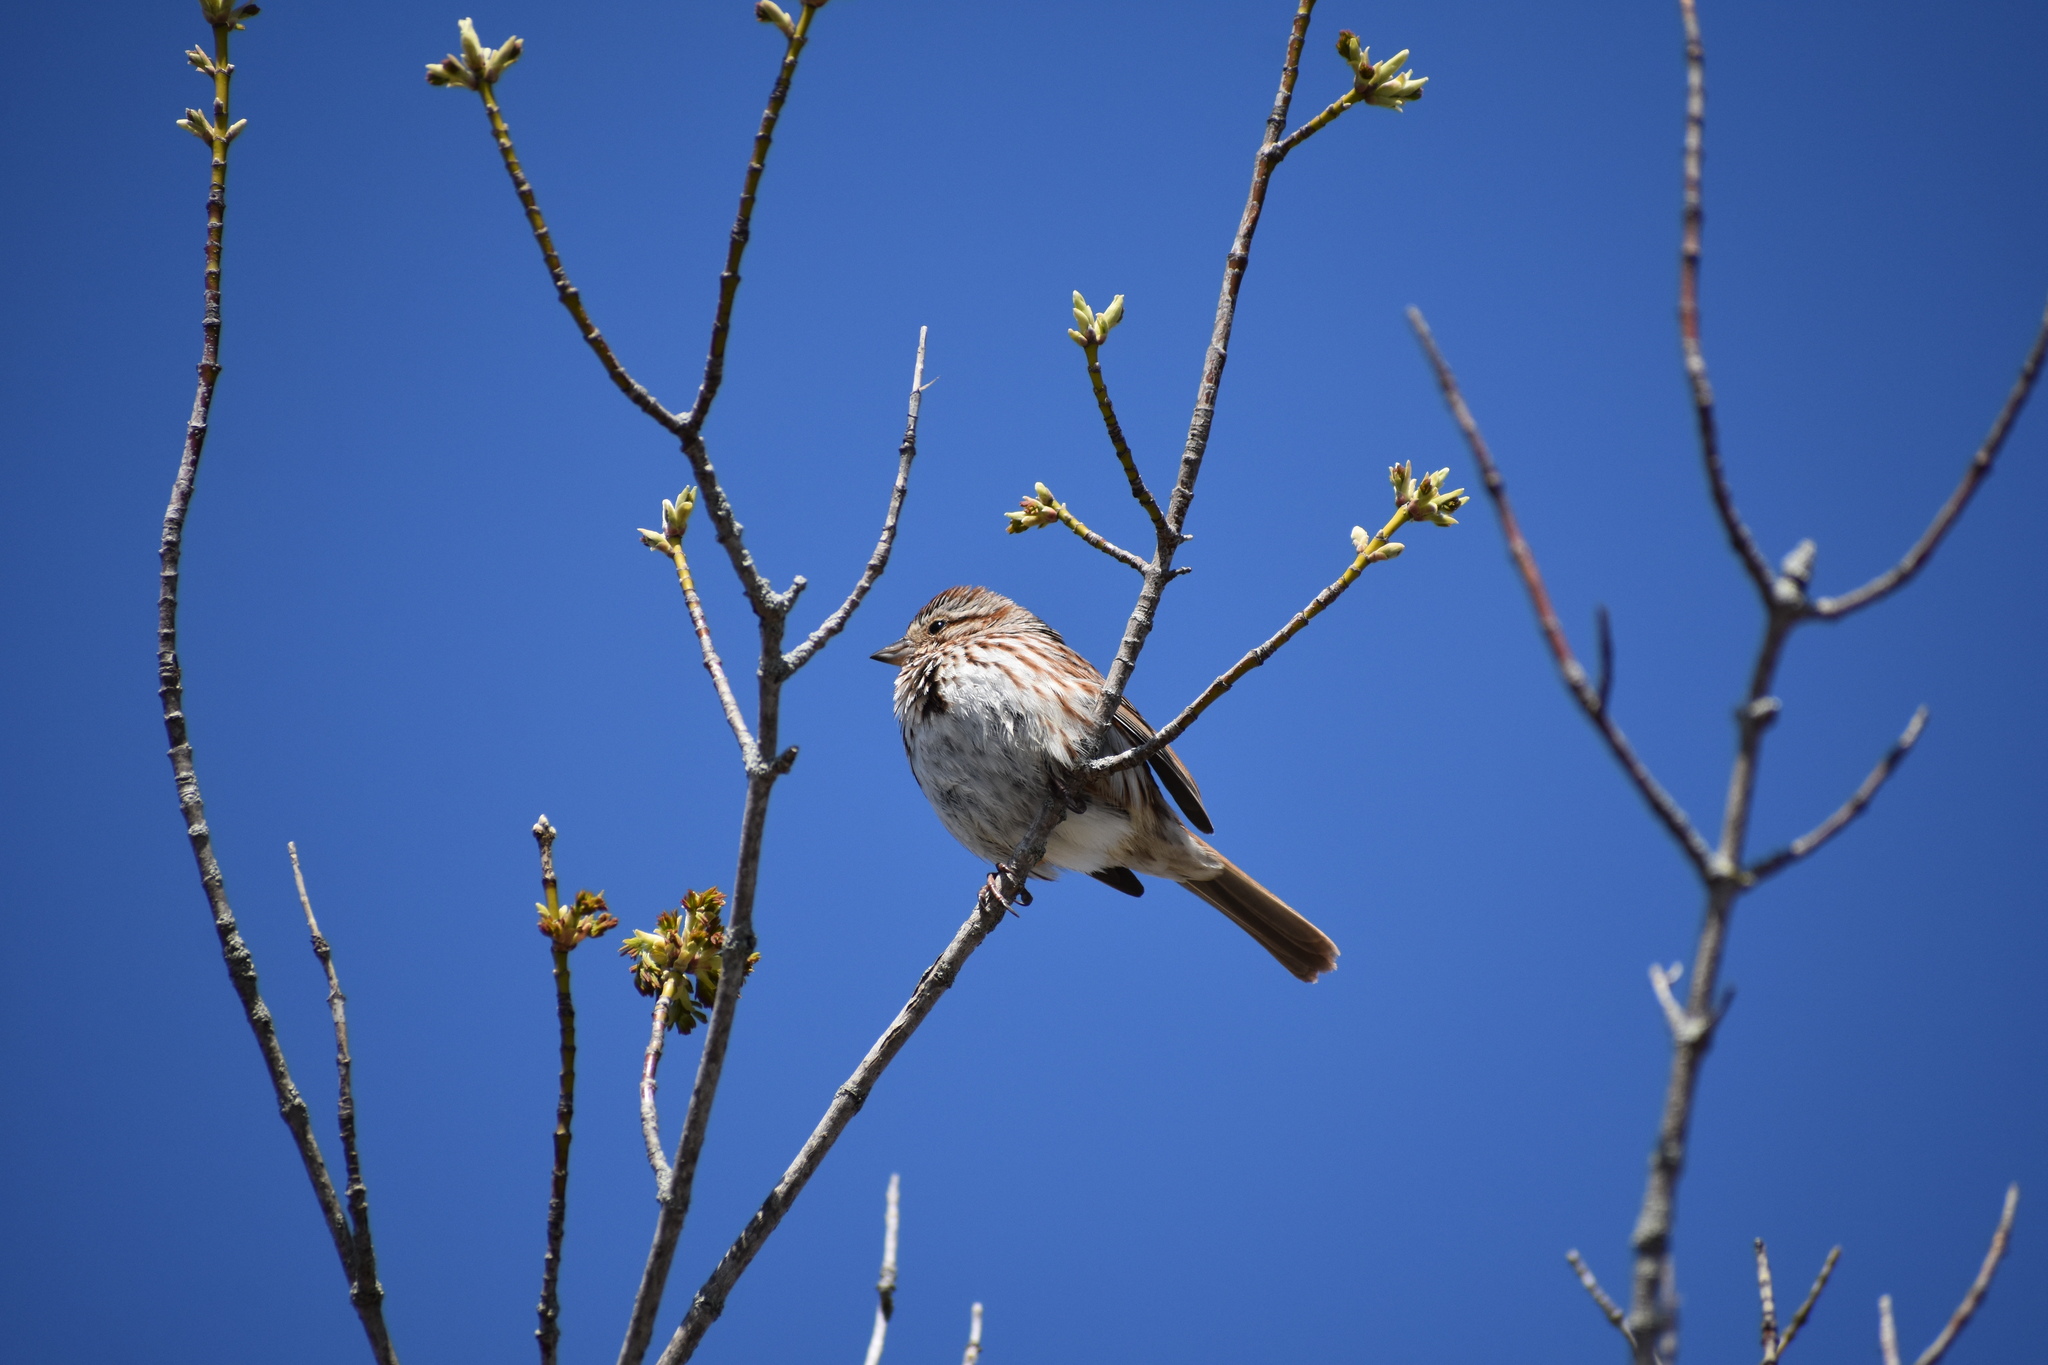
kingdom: Animalia
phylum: Chordata
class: Aves
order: Passeriformes
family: Passerellidae
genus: Melospiza
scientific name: Melospiza melodia
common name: Song sparrow
